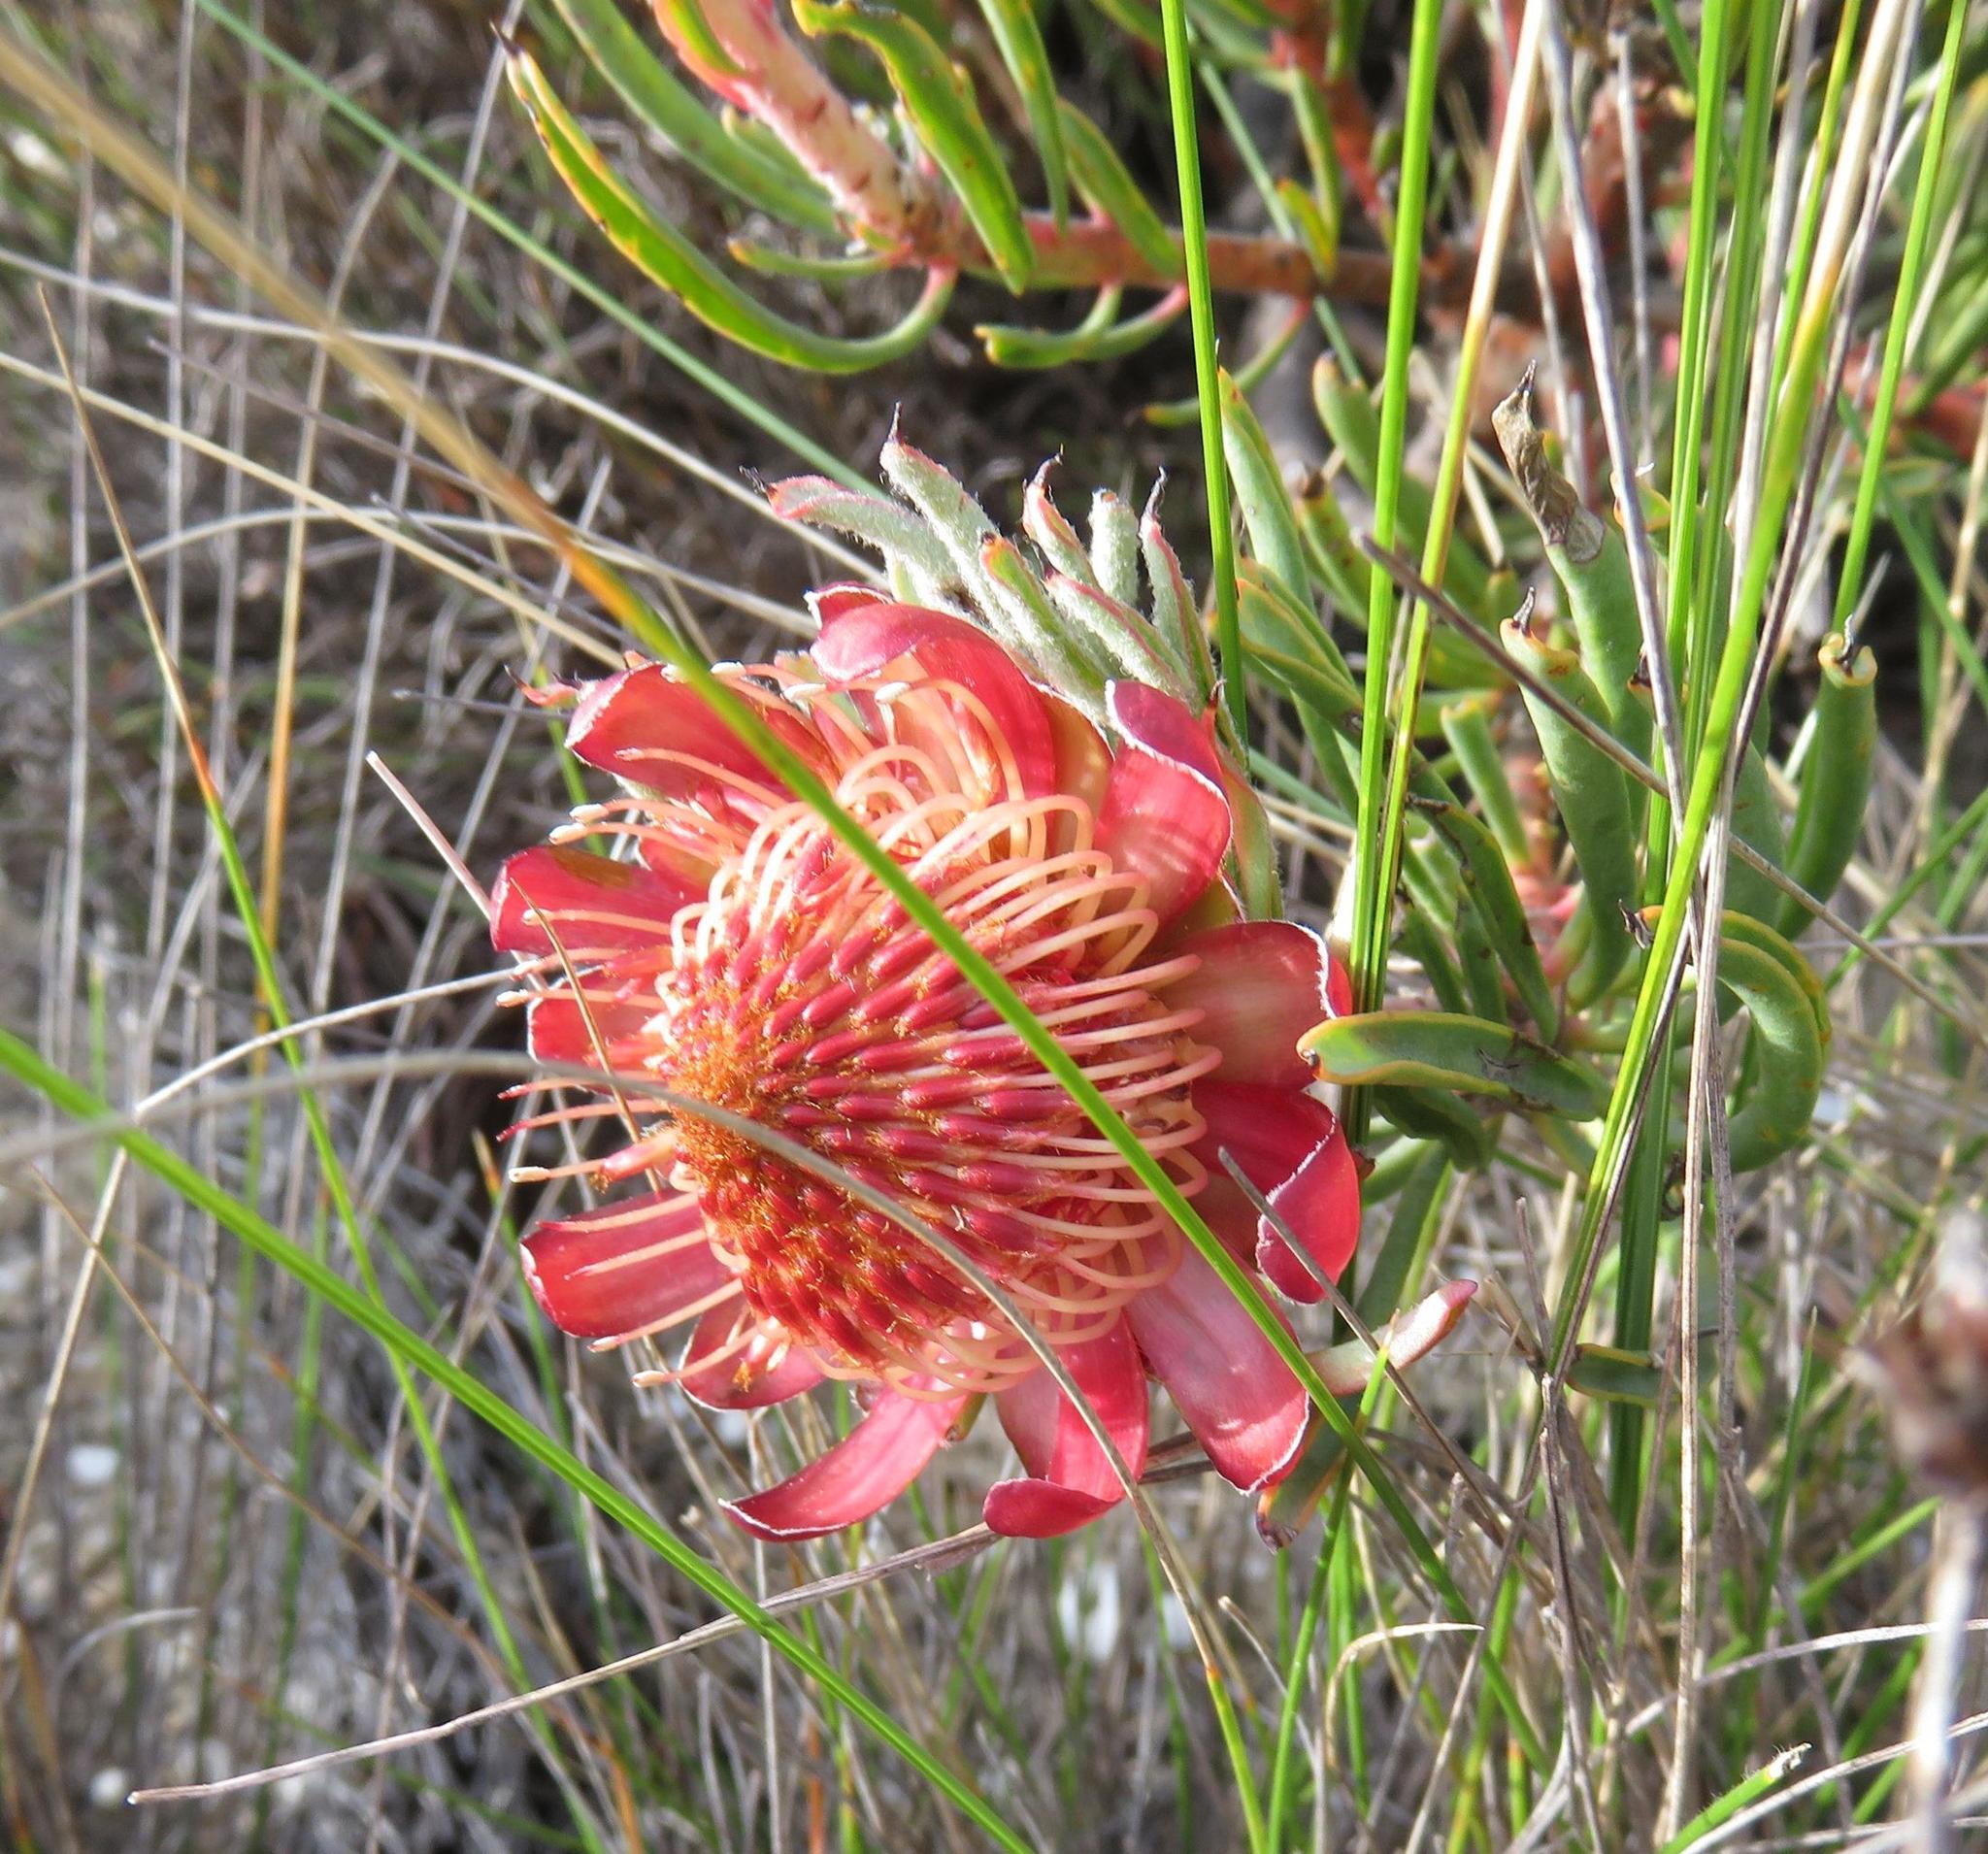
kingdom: Plantae
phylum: Tracheophyta
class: Magnoliopsida
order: Proteales
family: Proteaceae
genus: Protea
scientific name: Protea canaliculata
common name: Groove-leaf sugarbush
